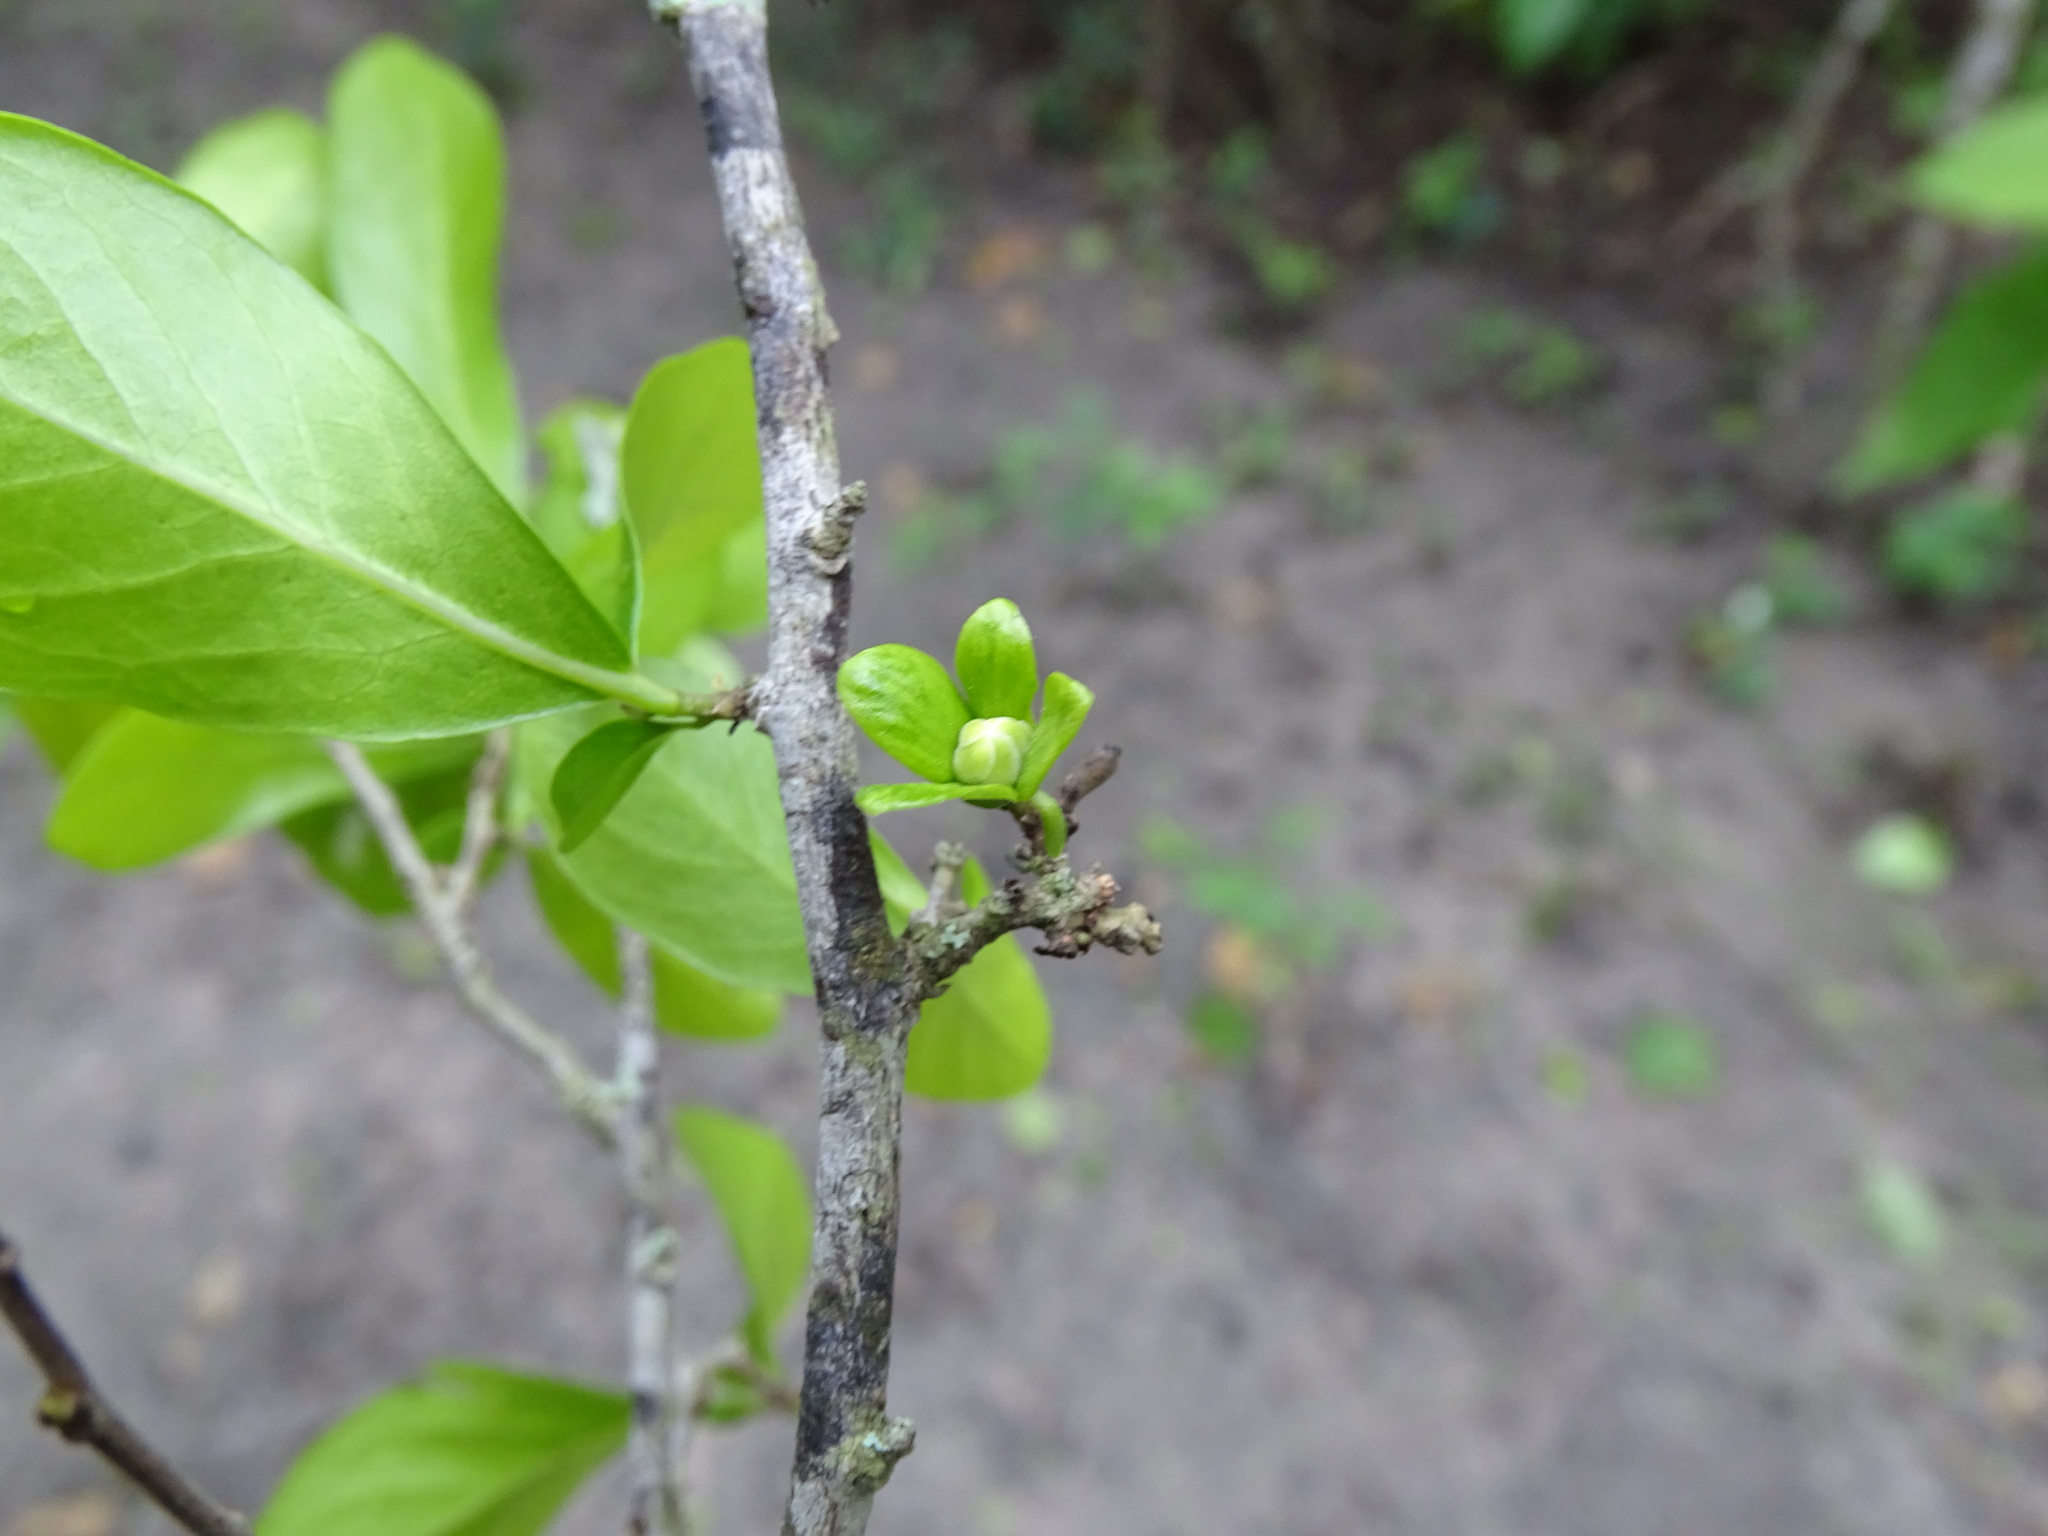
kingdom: Plantae
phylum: Tracheophyta
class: Magnoliopsida
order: Ericales
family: Ebenaceae
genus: Diospyros
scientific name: Diospyros palmeri
